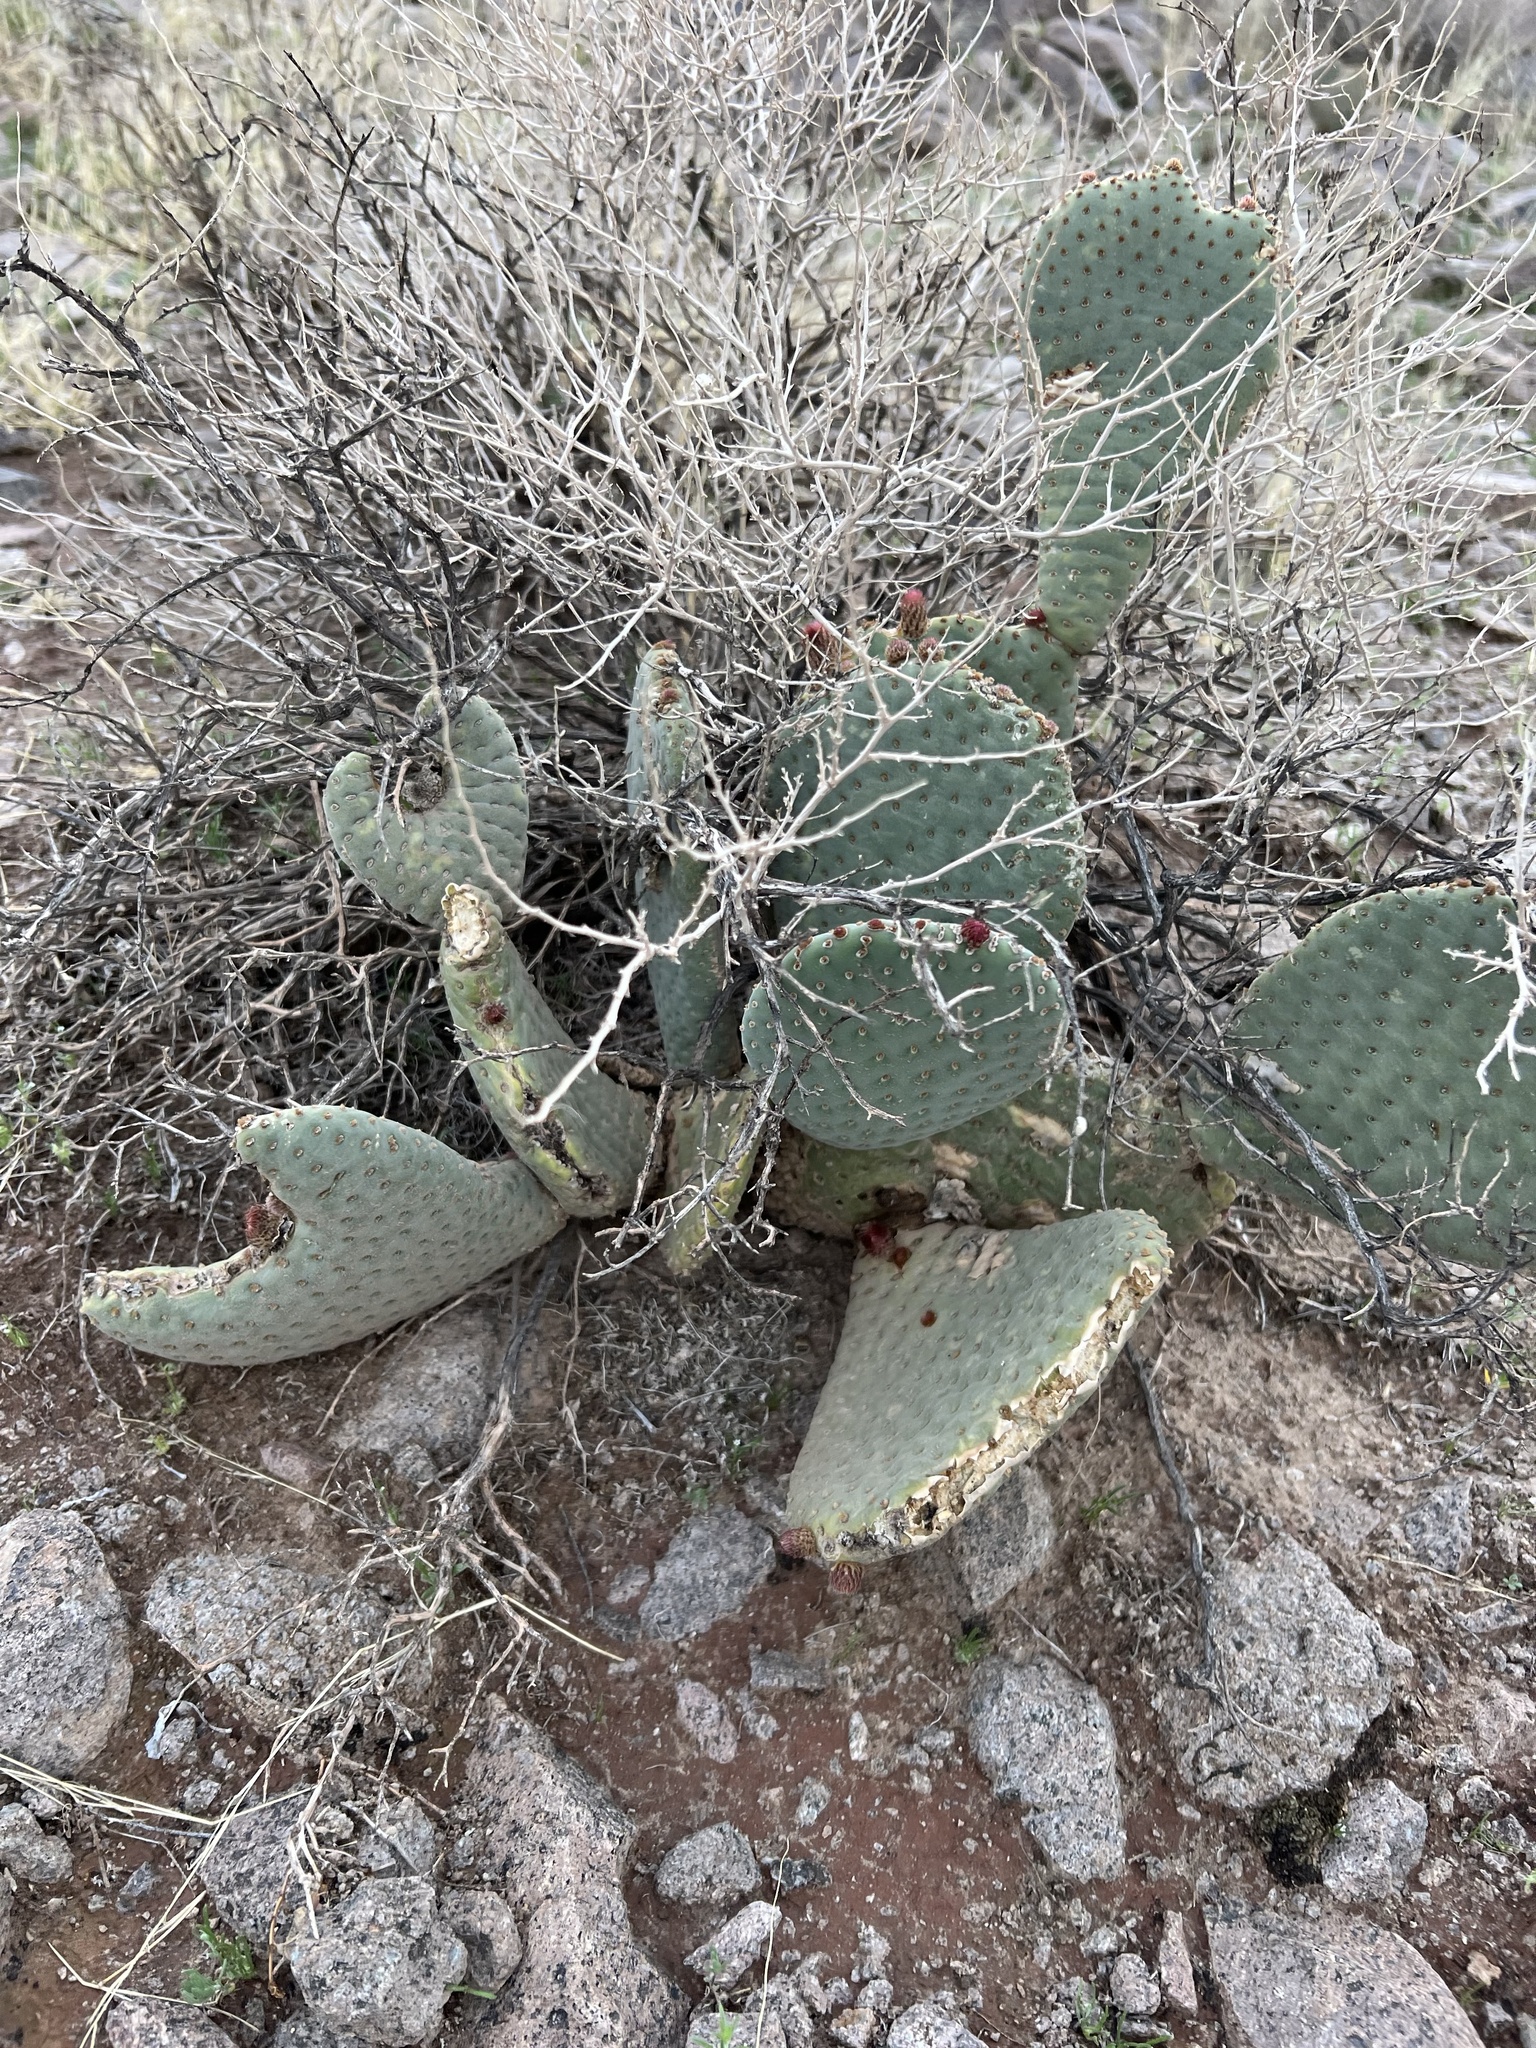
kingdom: Plantae
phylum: Tracheophyta
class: Magnoliopsida
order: Caryophyllales
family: Cactaceae
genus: Opuntia
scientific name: Opuntia basilaris
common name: Beavertail prickly-pear
